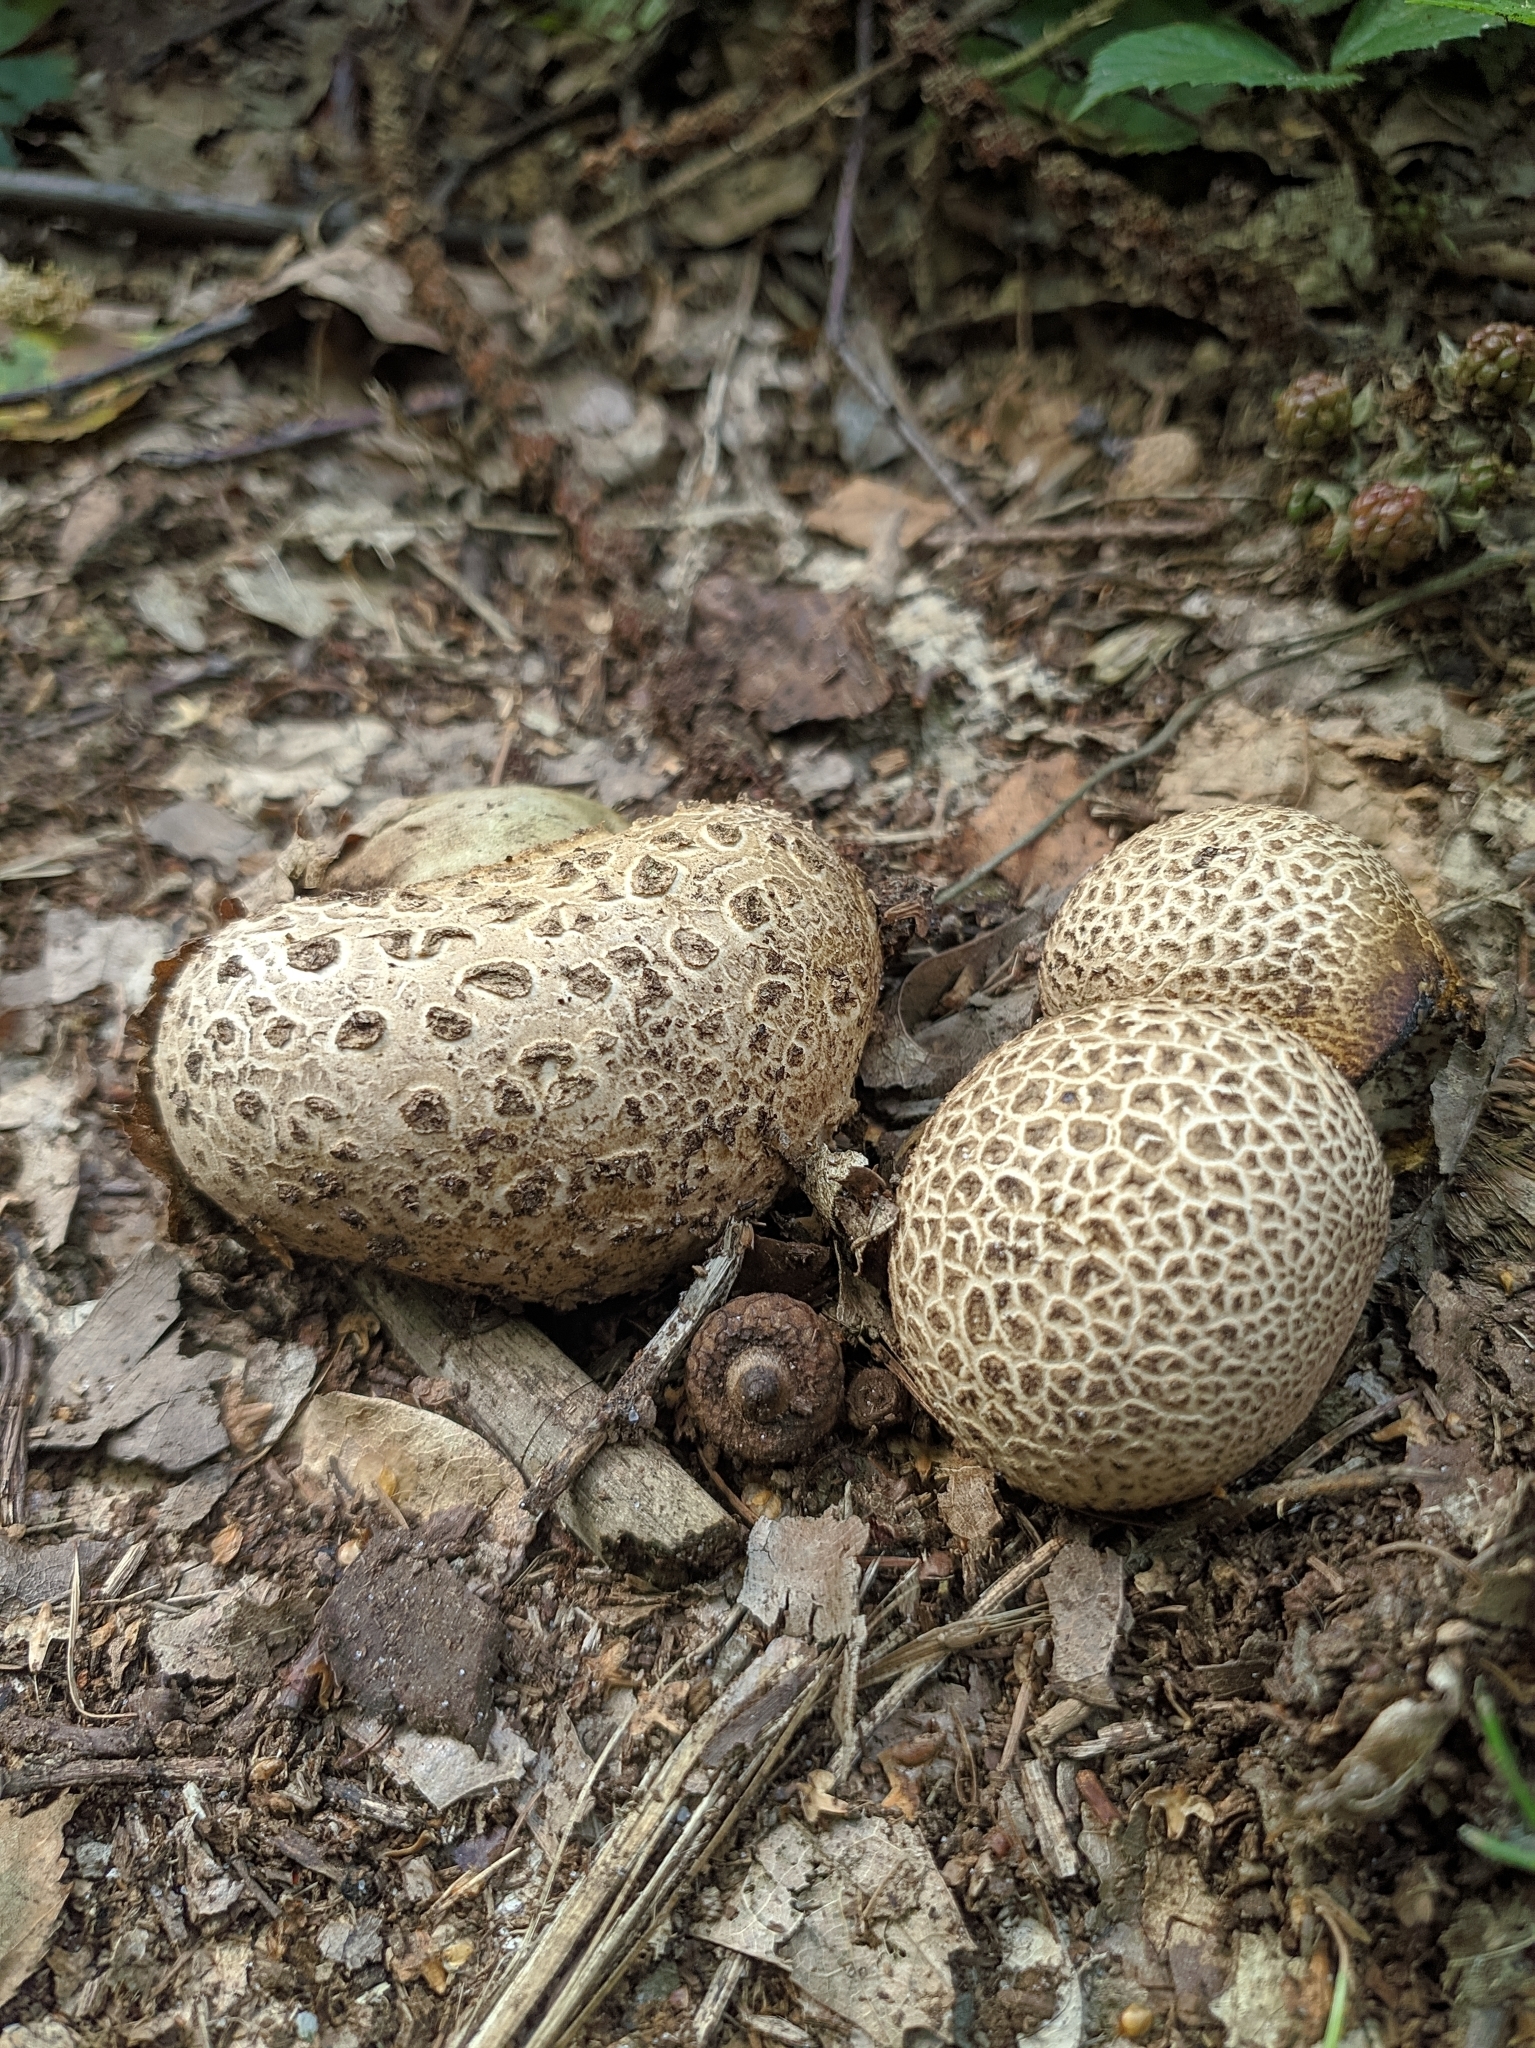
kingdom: Fungi
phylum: Basidiomycota
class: Agaricomycetes
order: Boletales
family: Sclerodermataceae
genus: Scleroderma
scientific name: Scleroderma citrinum
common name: Common earthball
